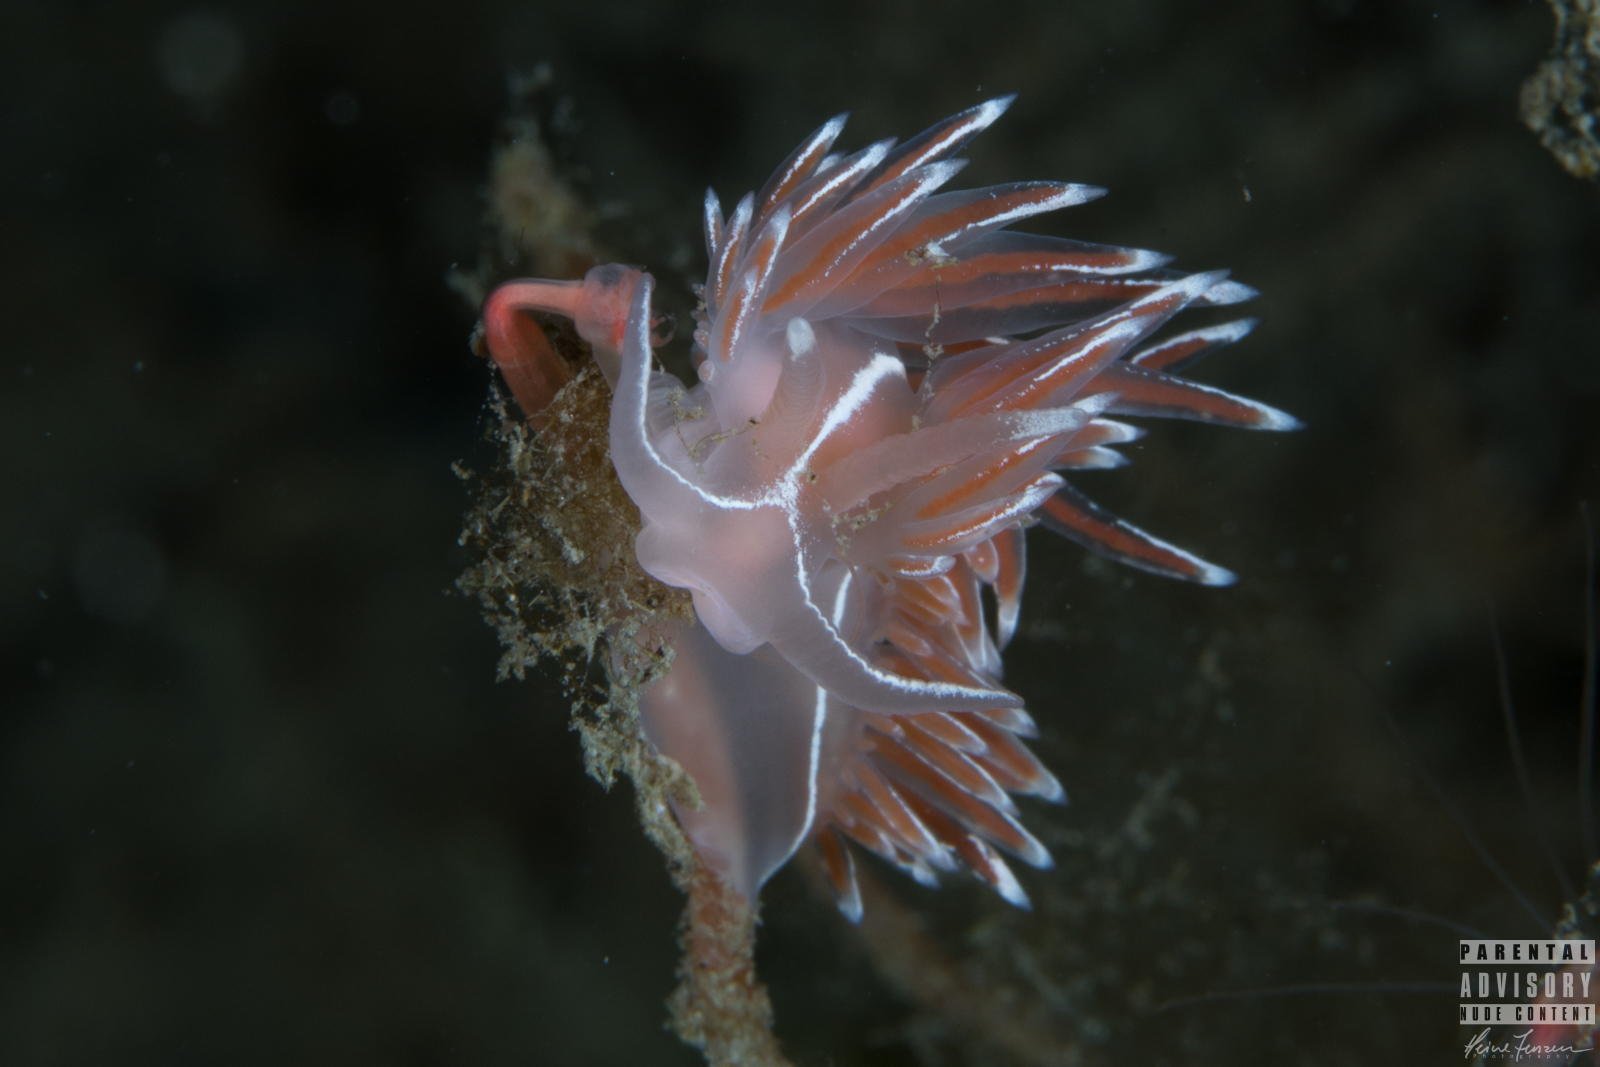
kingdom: Animalia
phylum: Mollusca
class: Gastropoda
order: Nudibranchia
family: Coryphellidae
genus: Coryphella
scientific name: Coryphella lineata
